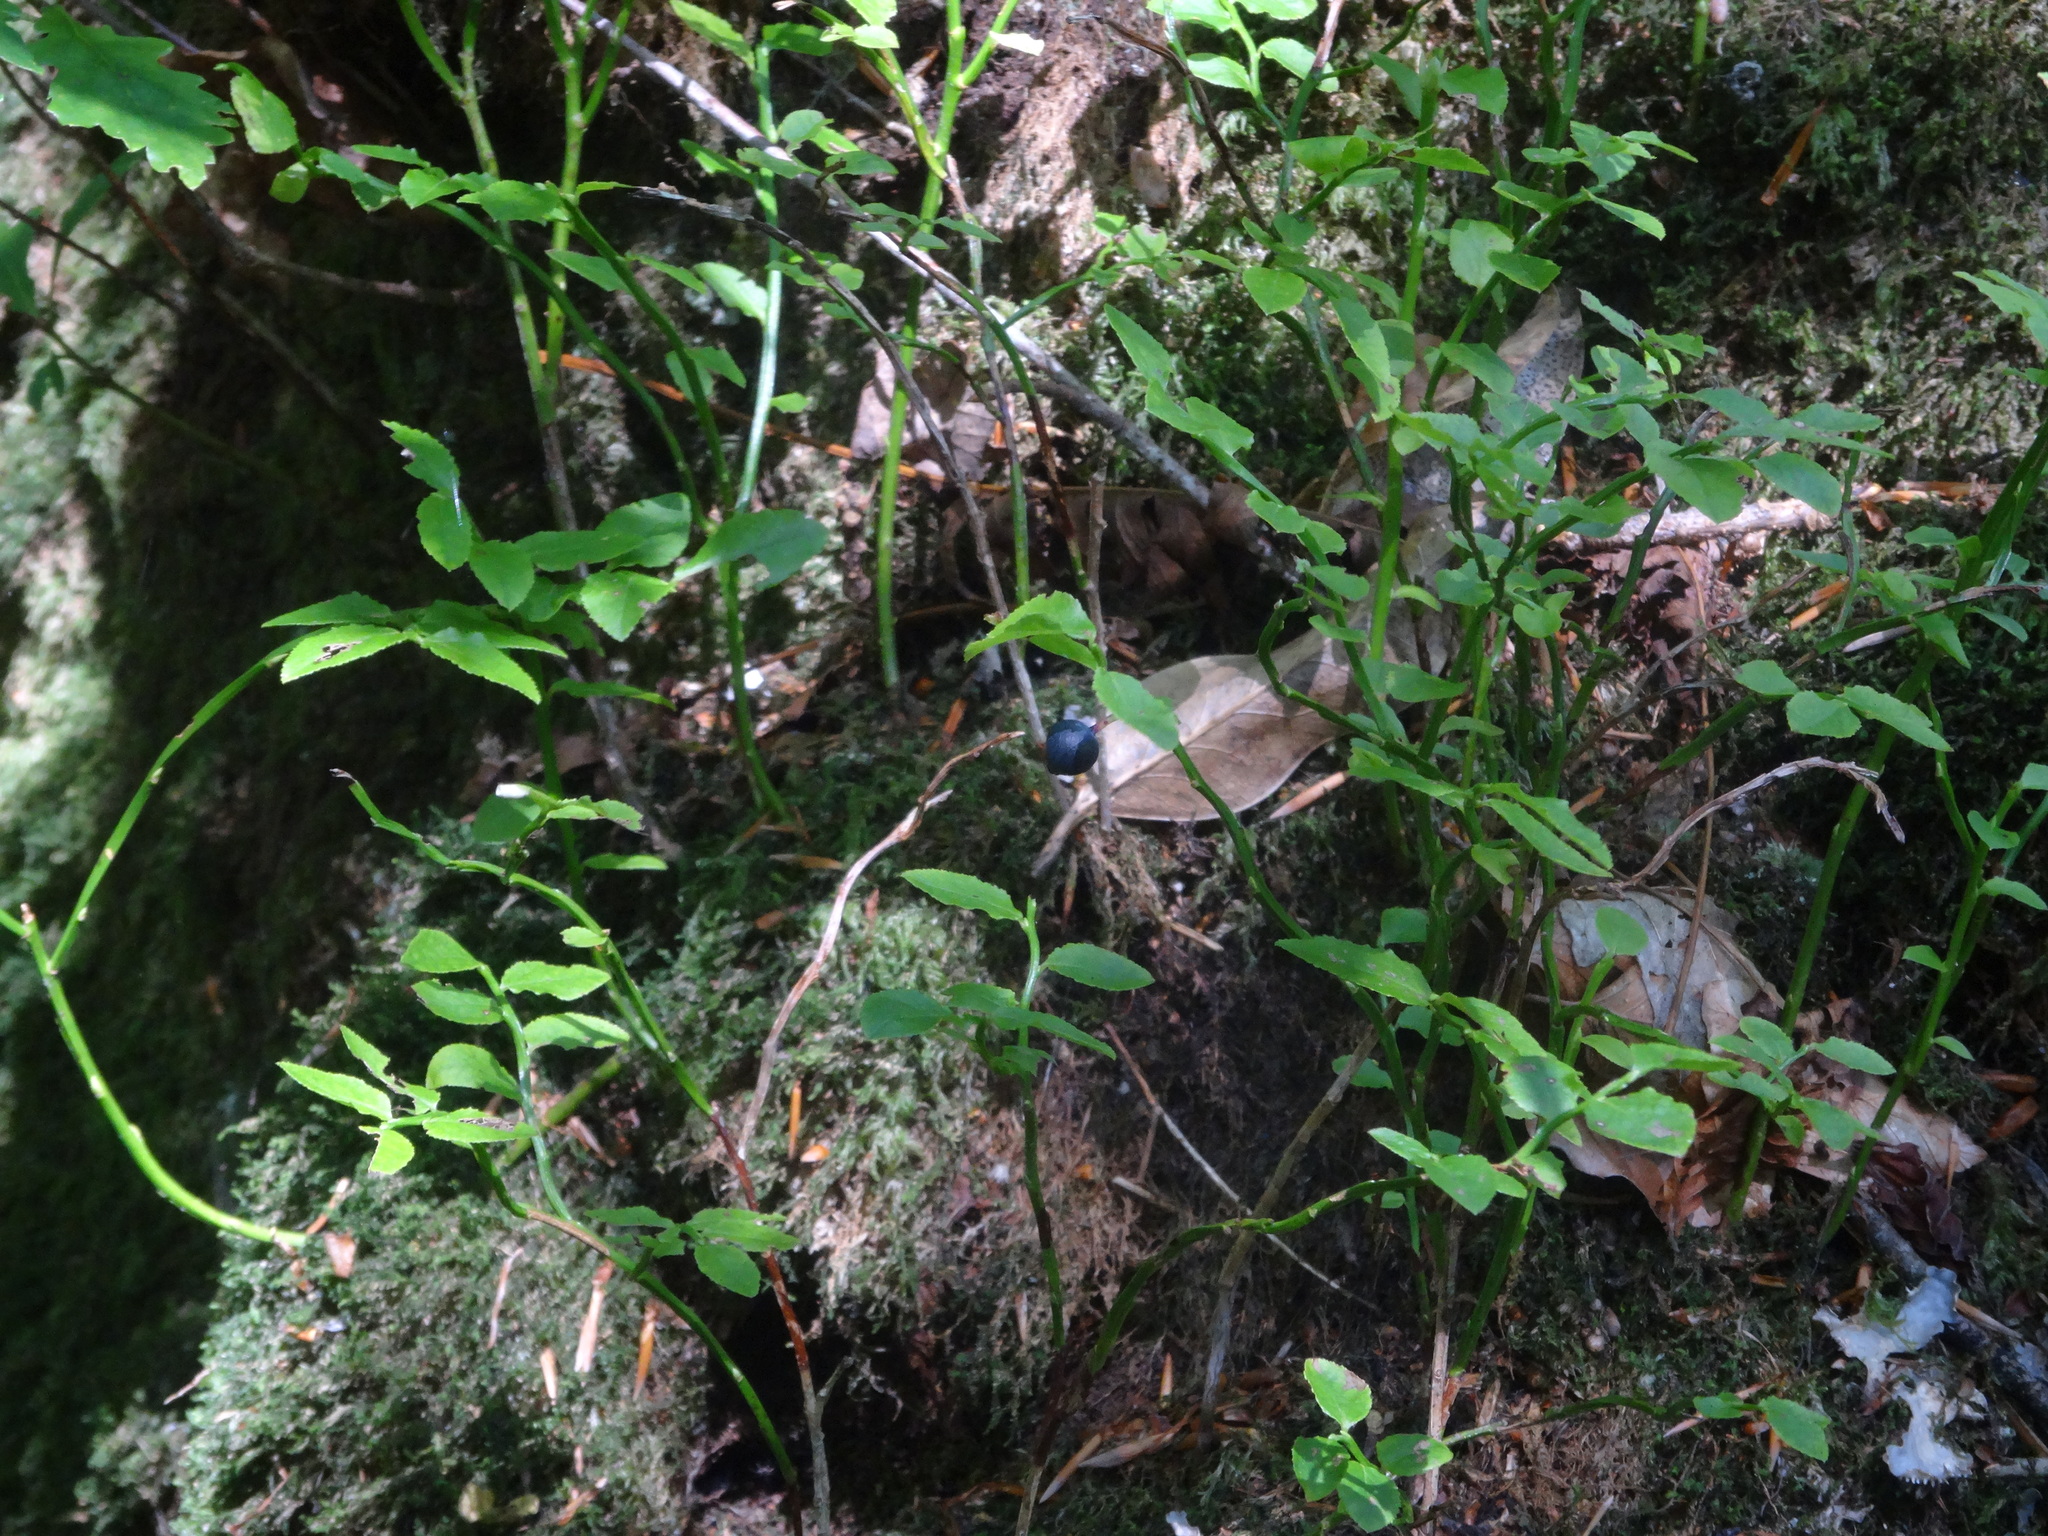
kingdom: Plantae
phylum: Tracheophyta
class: Magnoliopsida
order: Ericales
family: Ericaceae
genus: Vaccinium
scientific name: Vaccinium myrtillus
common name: Bilberry
